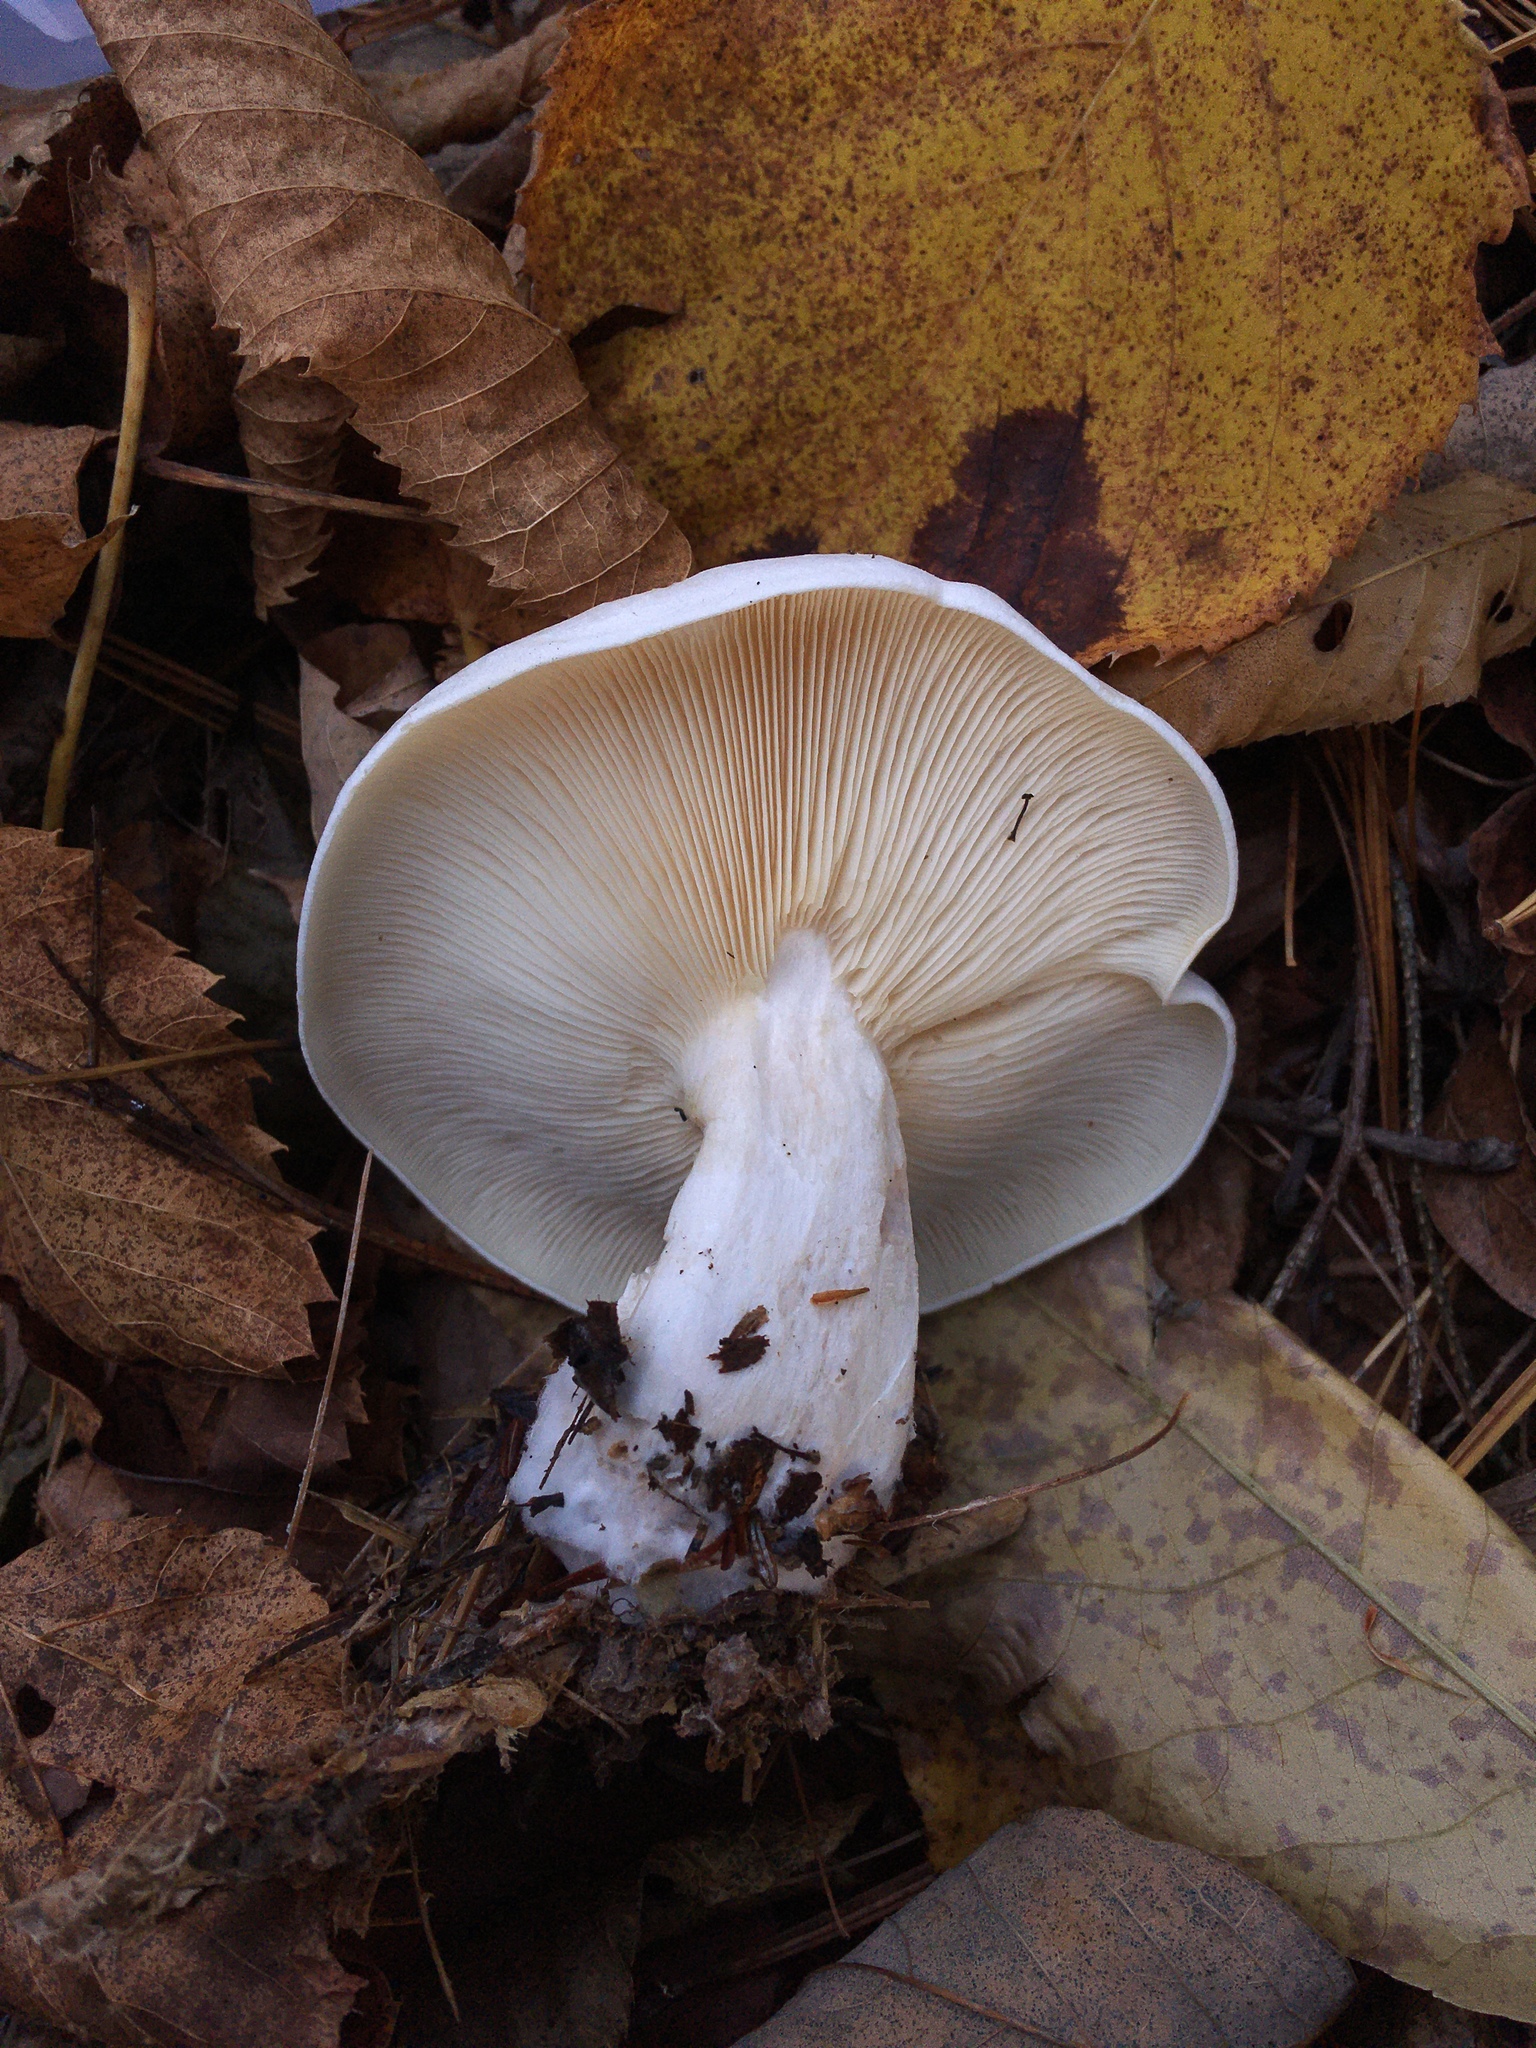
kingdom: Fungi
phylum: Basidiomycota
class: Agaricomycetes
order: Agaricales
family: Tricholomataceae
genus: Clitocybe
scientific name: Clitocybe robusta
